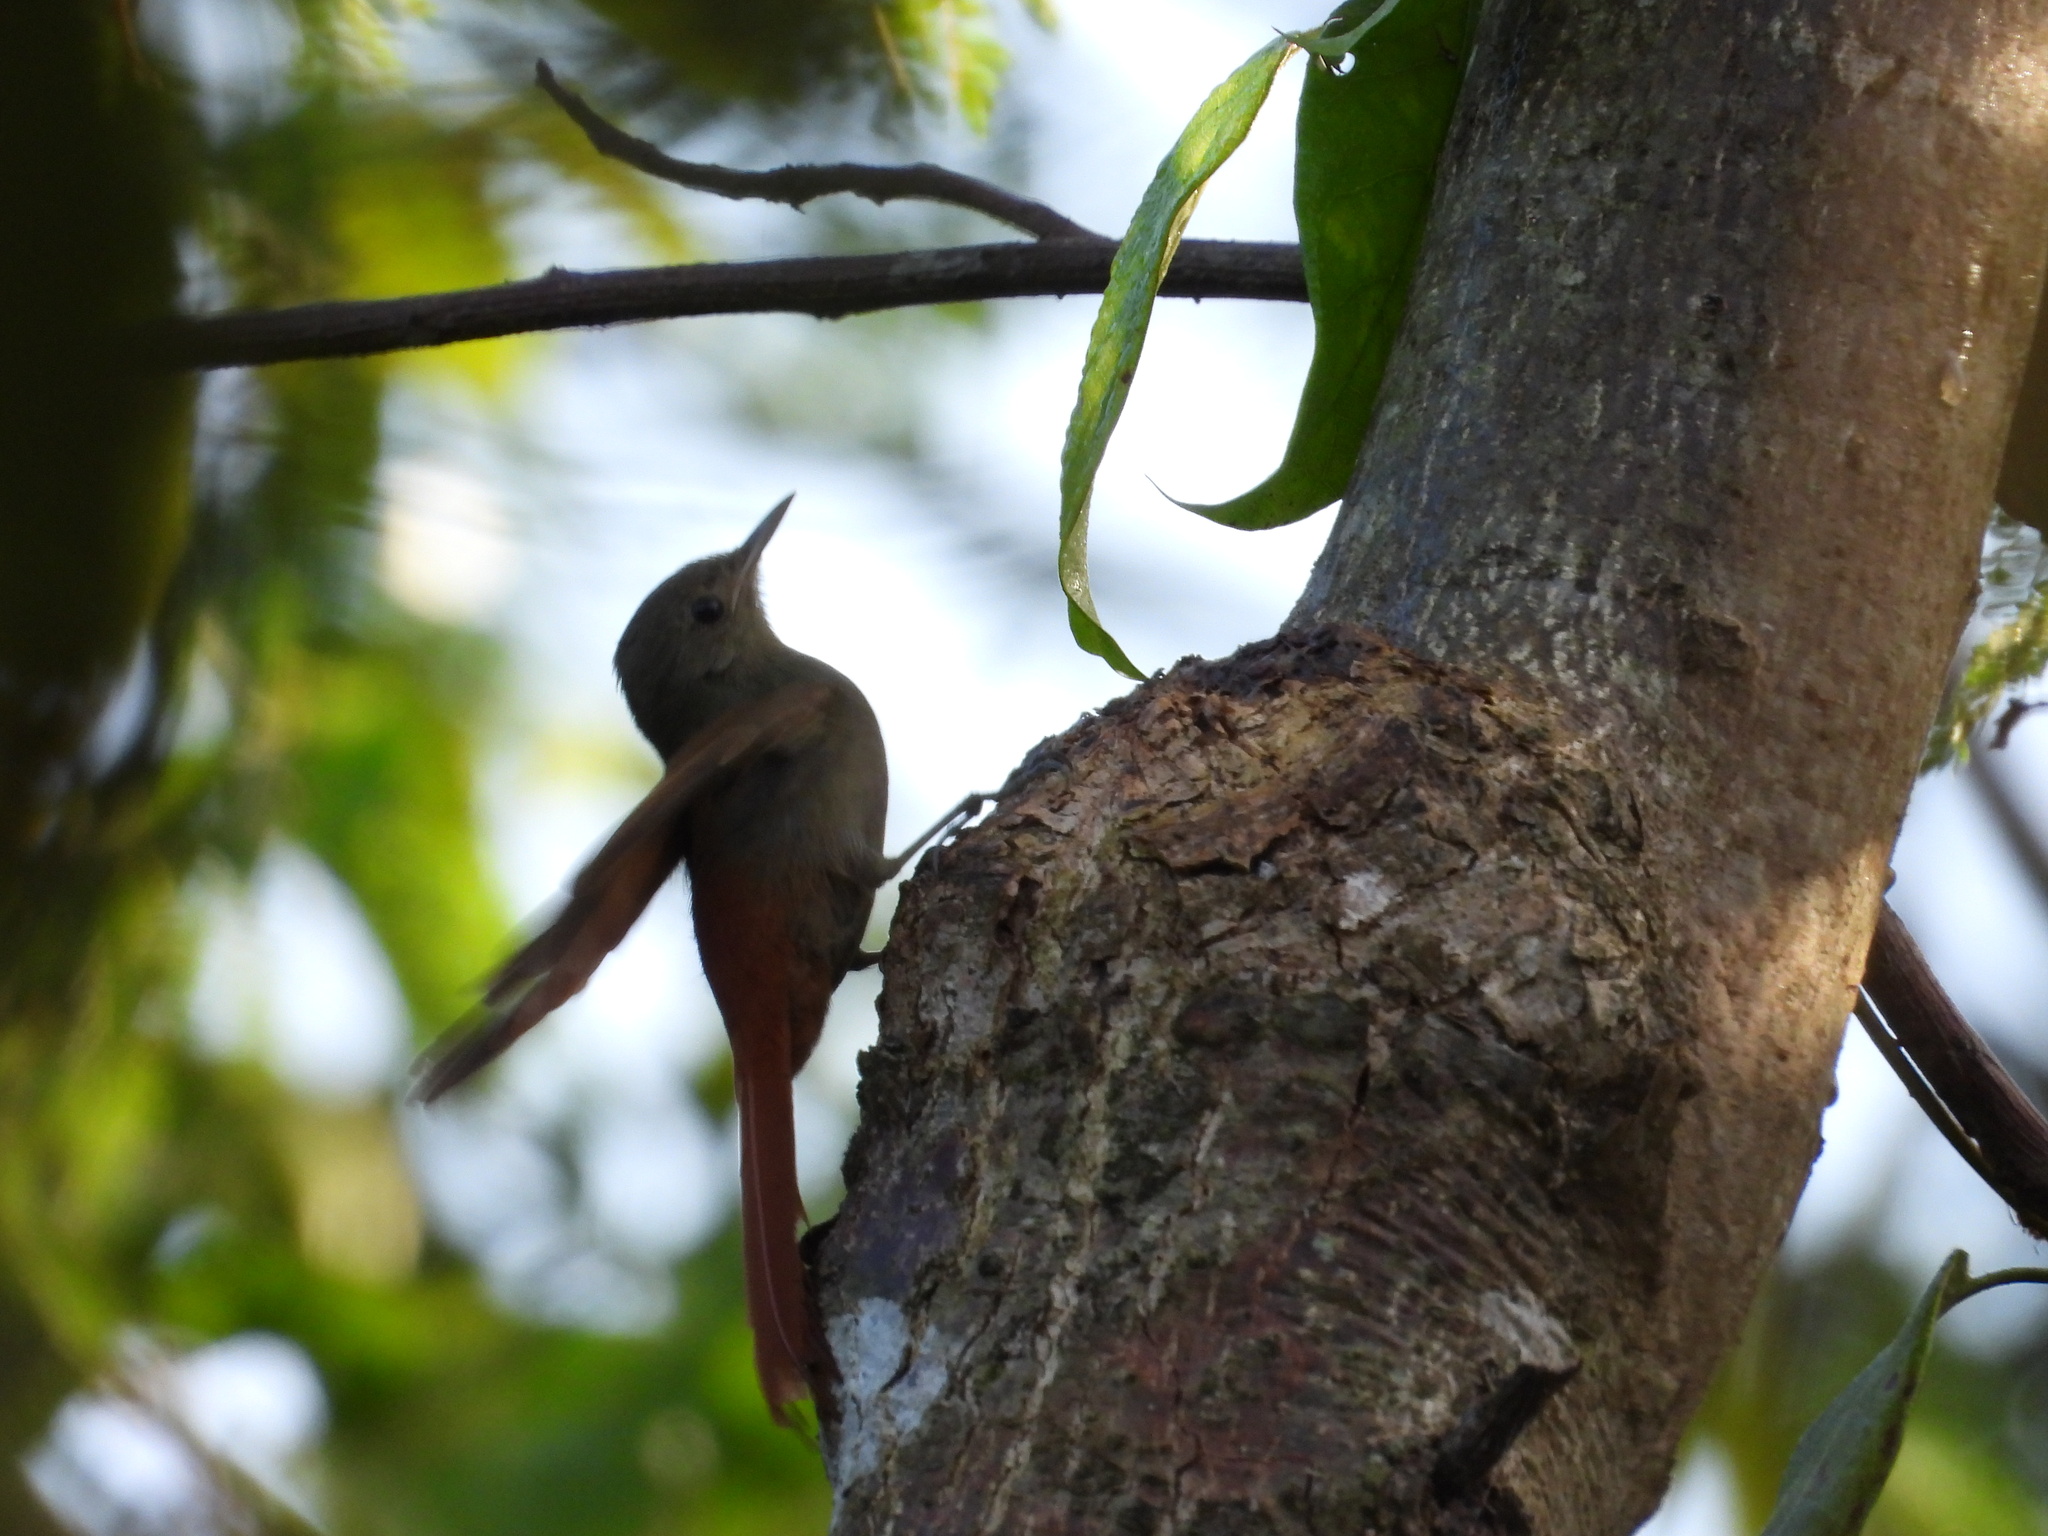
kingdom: Animalia
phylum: Chordata
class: Aves
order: Passeriformes
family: Furnariidae
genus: Sittasomus
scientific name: Sittasomus griseicapillus
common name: Olivaceous woodcreeper
